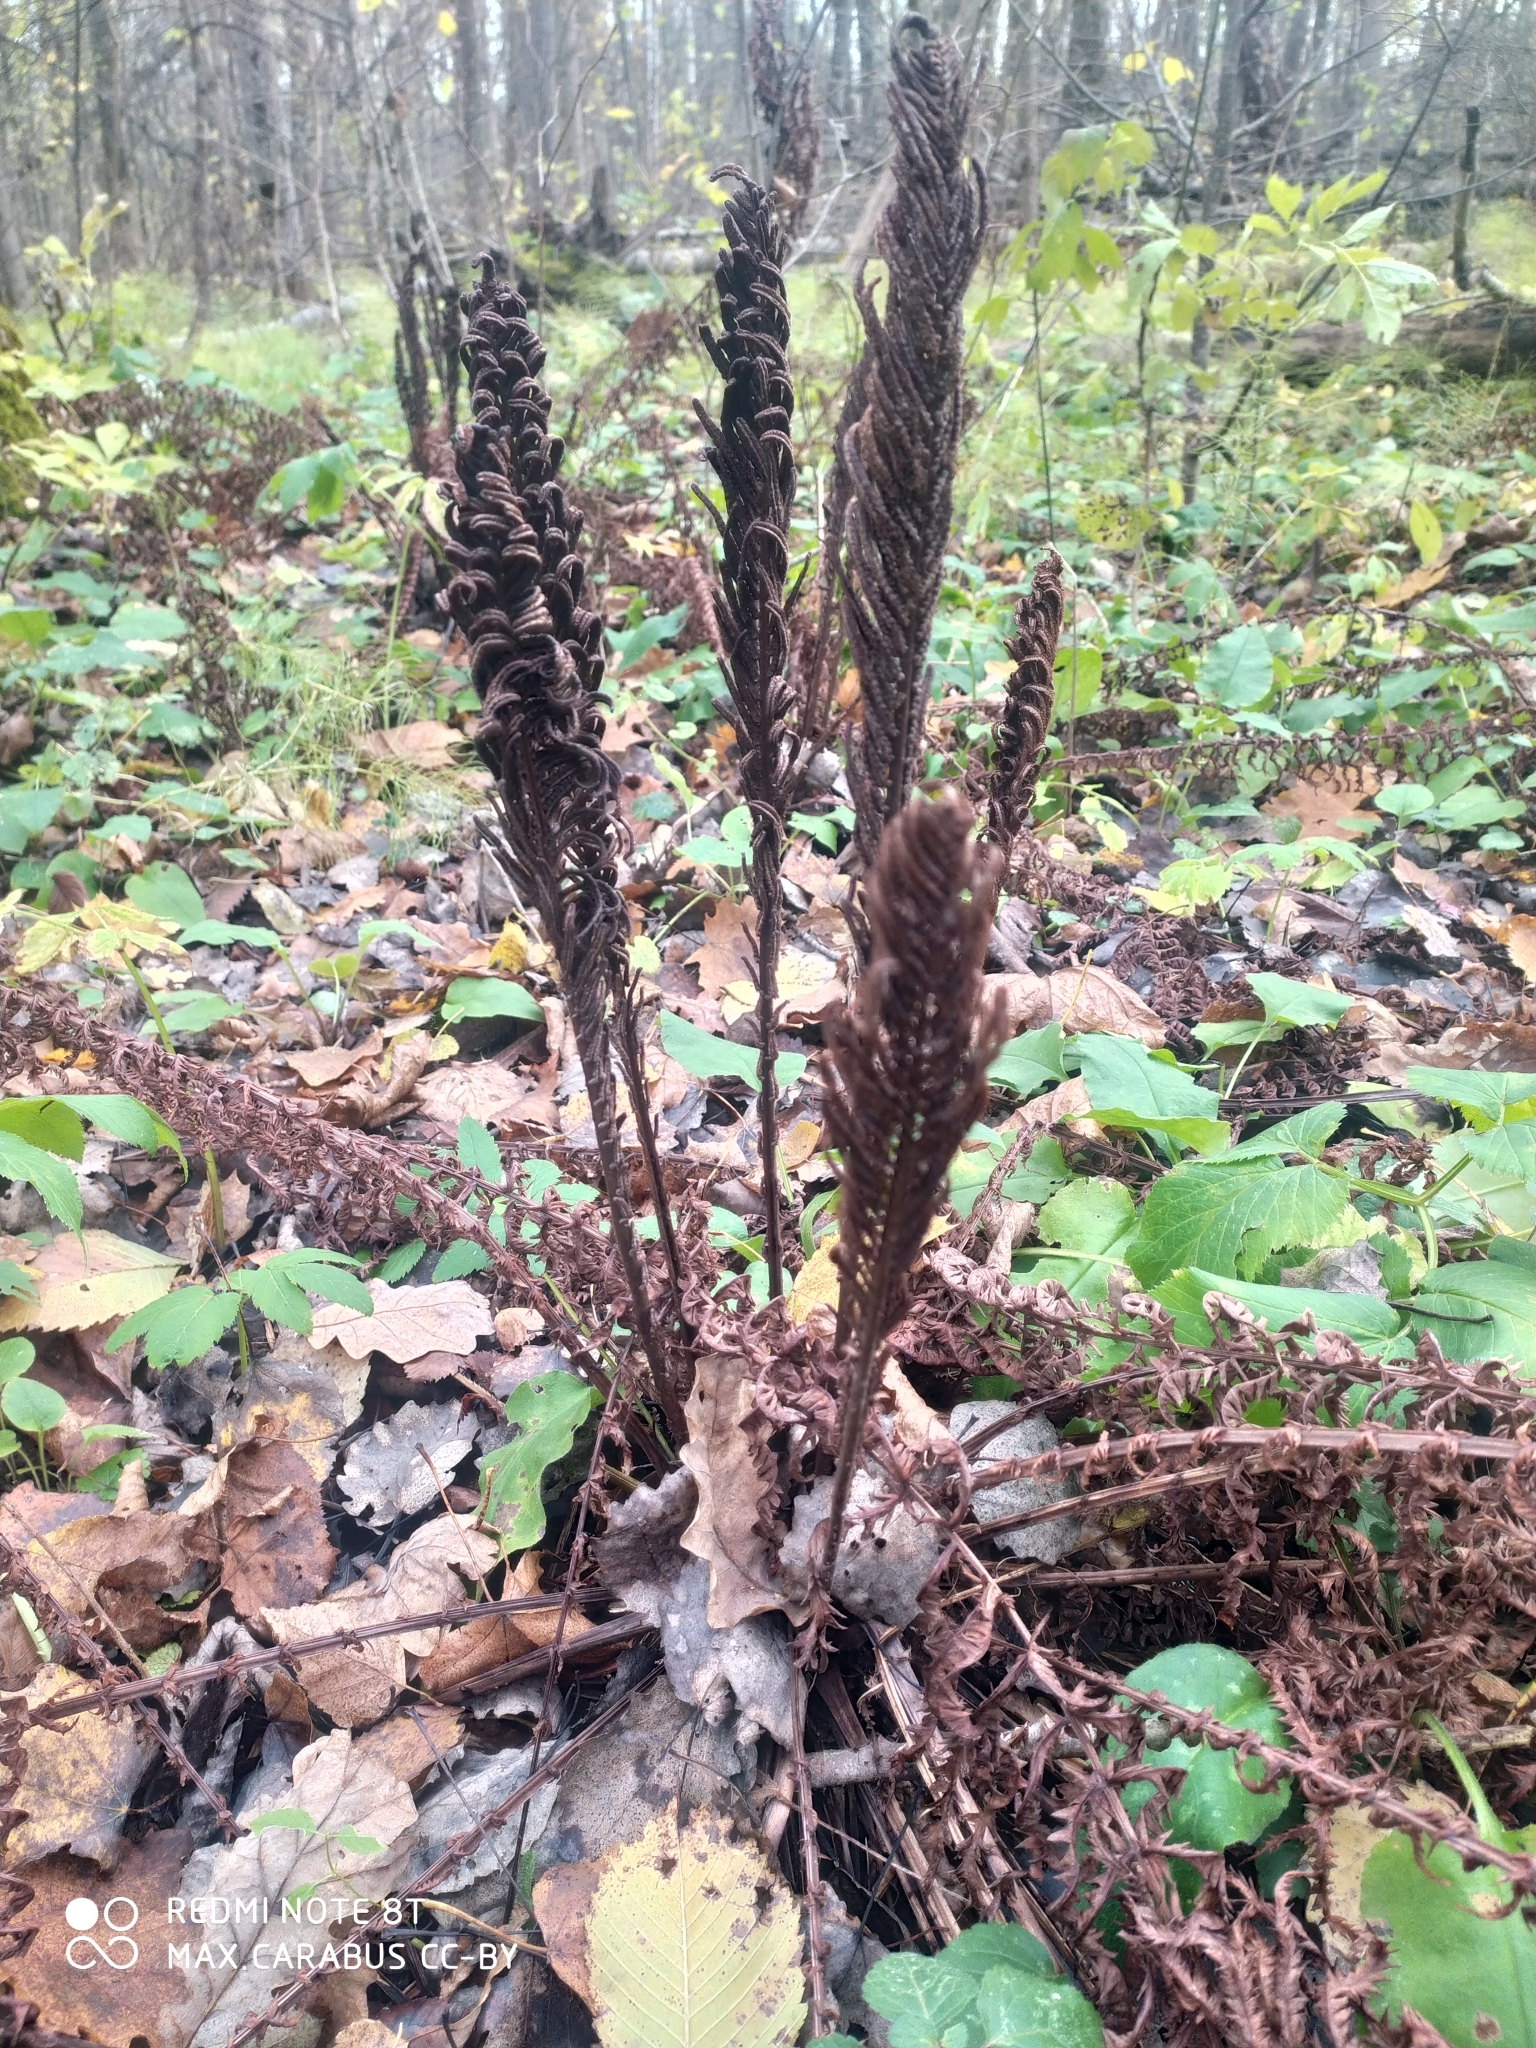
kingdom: Plantae
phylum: Tracheophyta
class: Polypodiopsida
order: Polypodiales
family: Onocleaceae
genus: Matteuccia
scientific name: Matteuccia struthiopteris
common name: Ostrich fern
